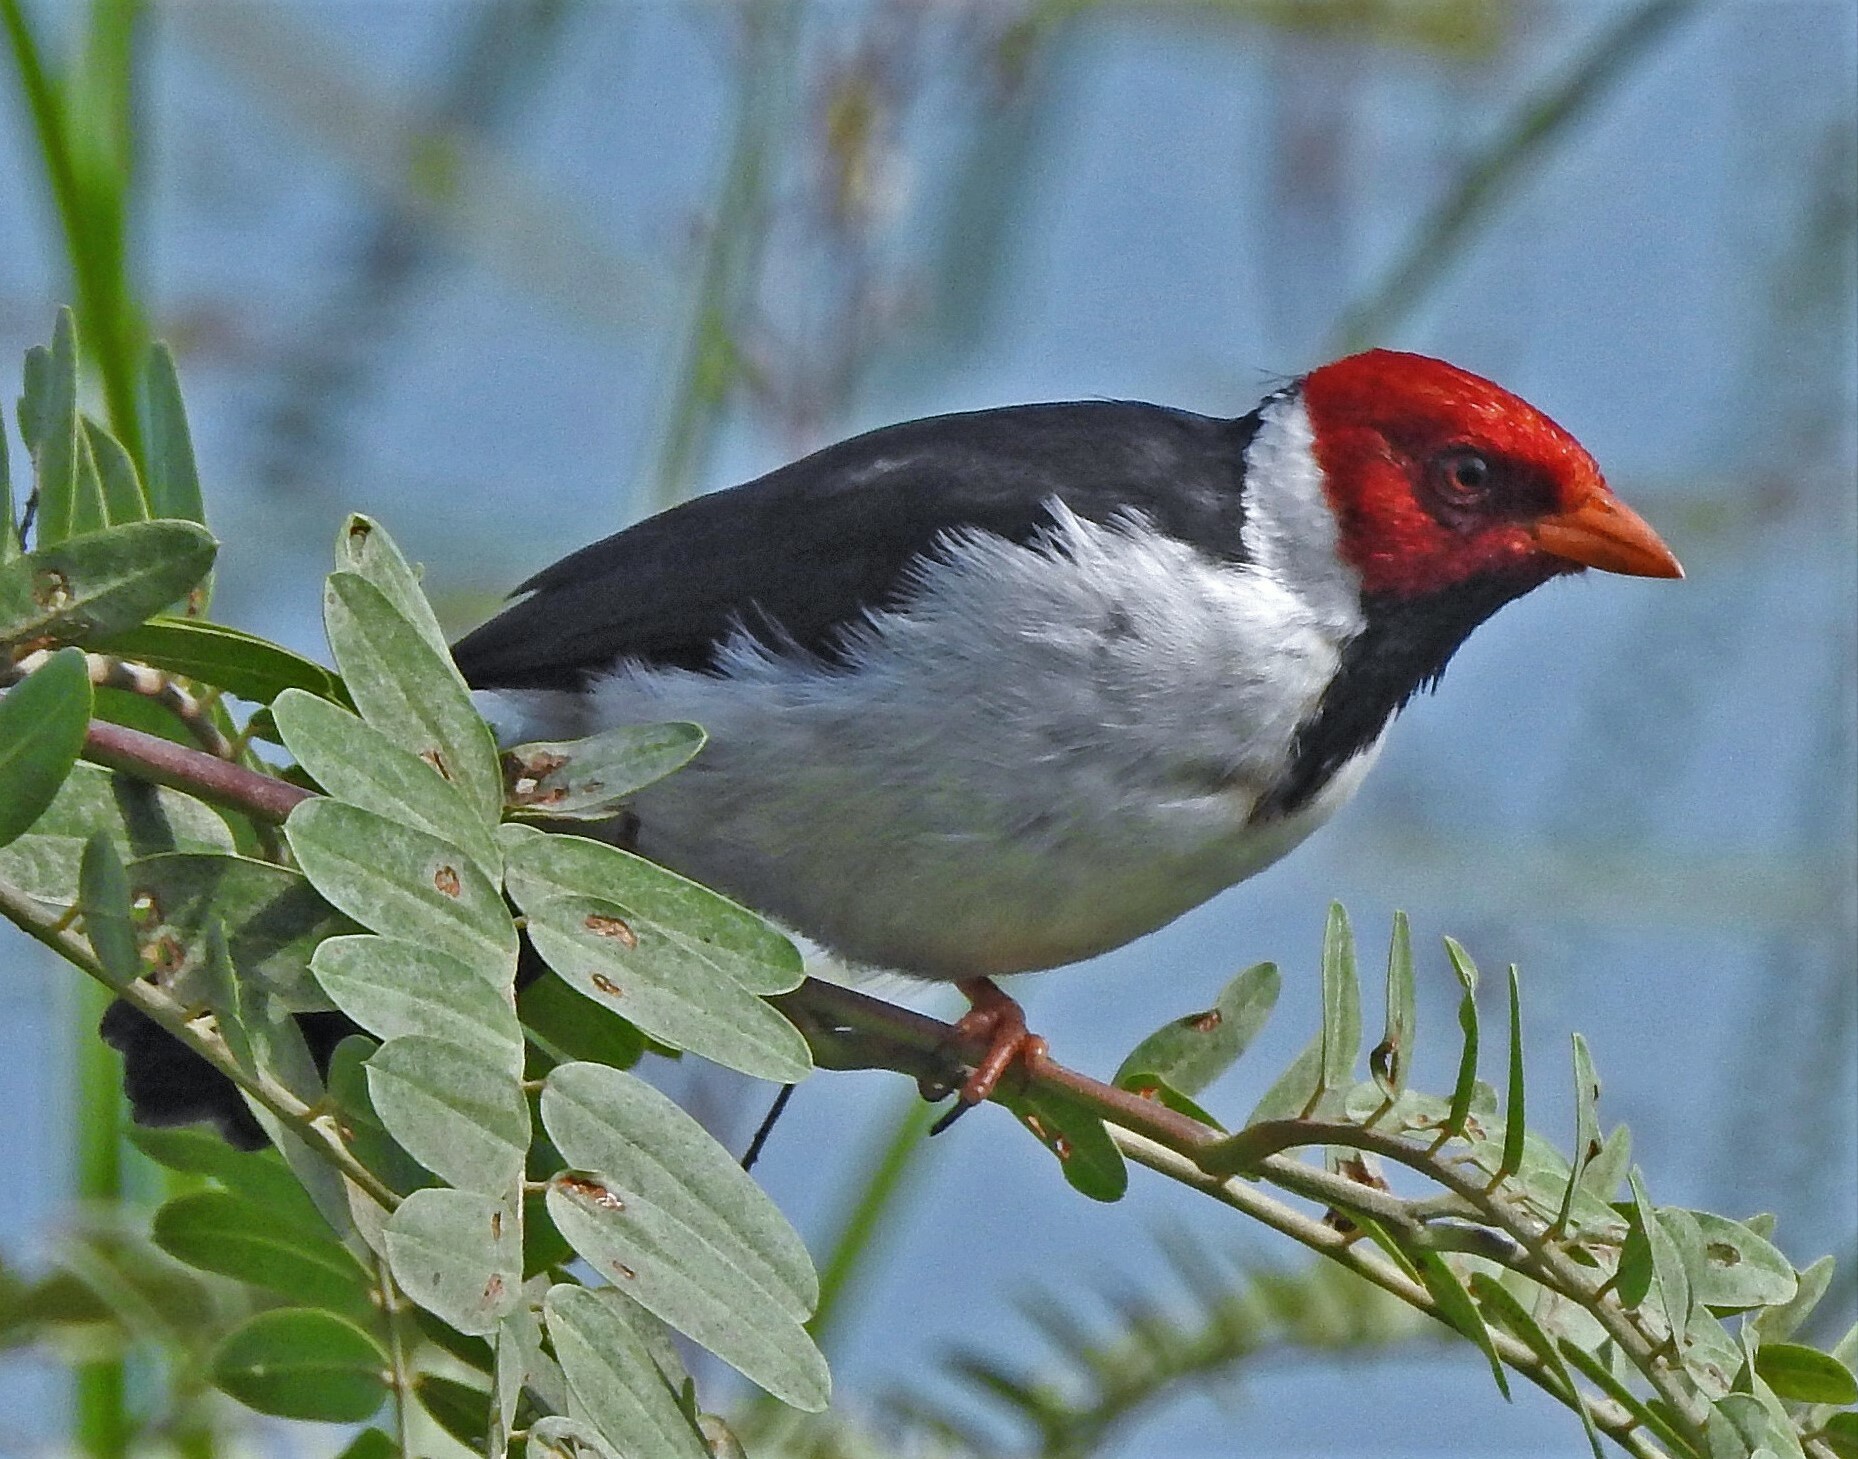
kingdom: Animalia
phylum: Chordata
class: Aves
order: Passeriformes
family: Thraupidae
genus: Paroaria
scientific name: Paroaria capitata
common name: Yellow-billed cardinal
